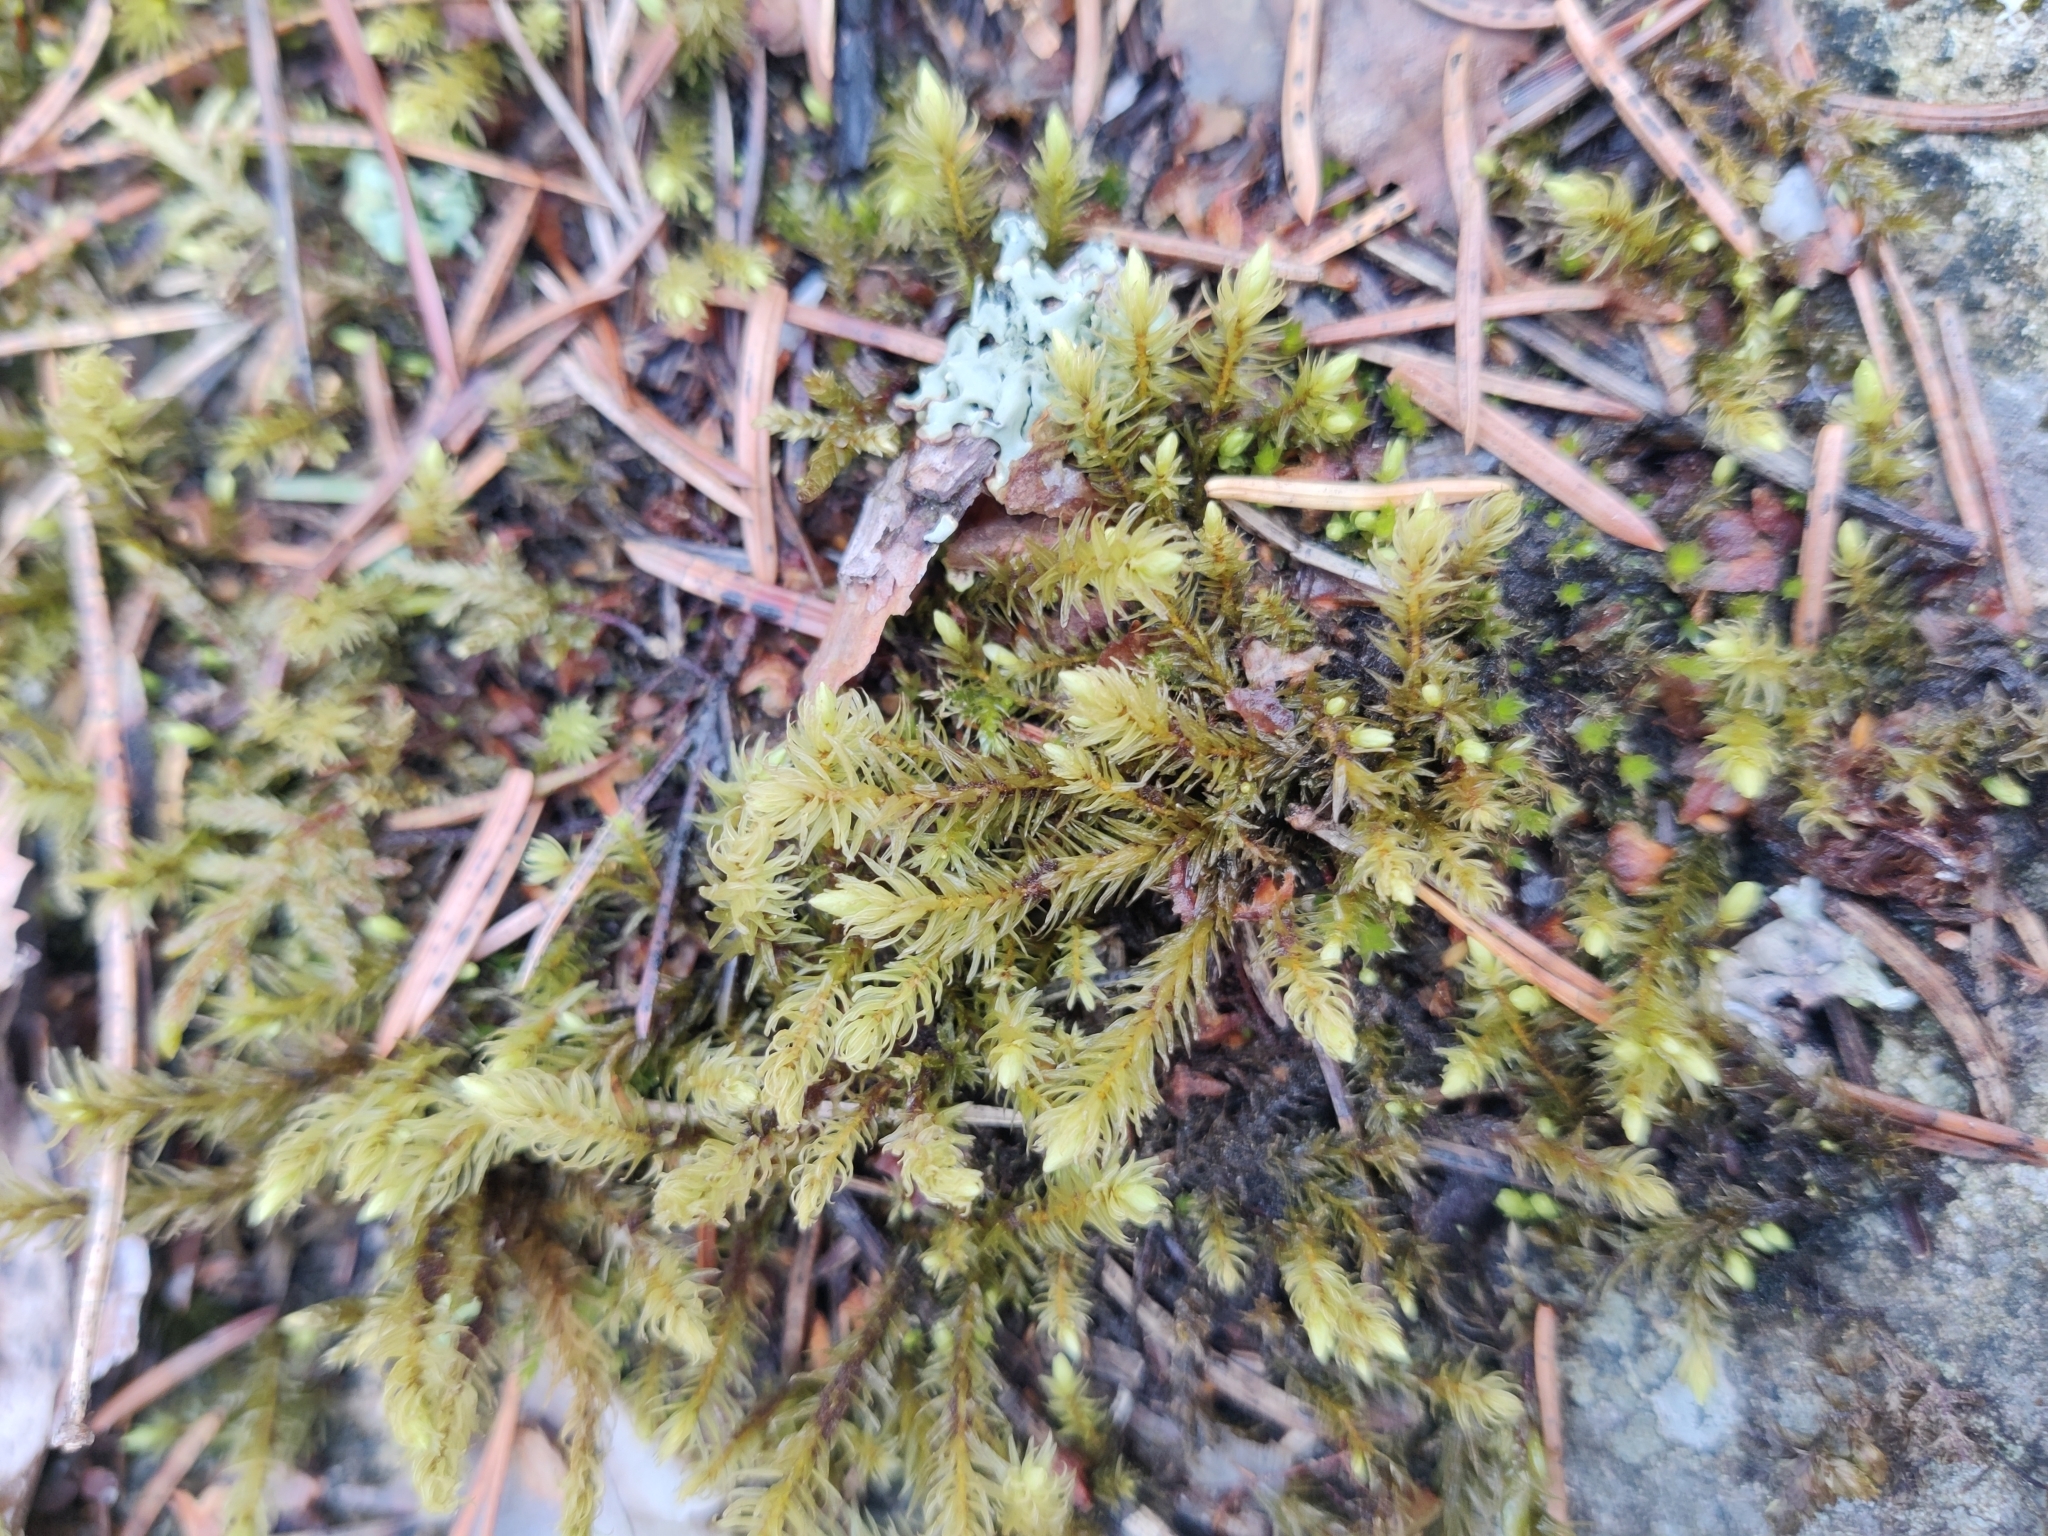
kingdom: Plantae
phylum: Bryophyta
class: Bryopsida
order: Aulacomniales
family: Aulacomniaceae
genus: Aulacomnium
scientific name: Aulacomnium palustre
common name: Bog groove-moss
